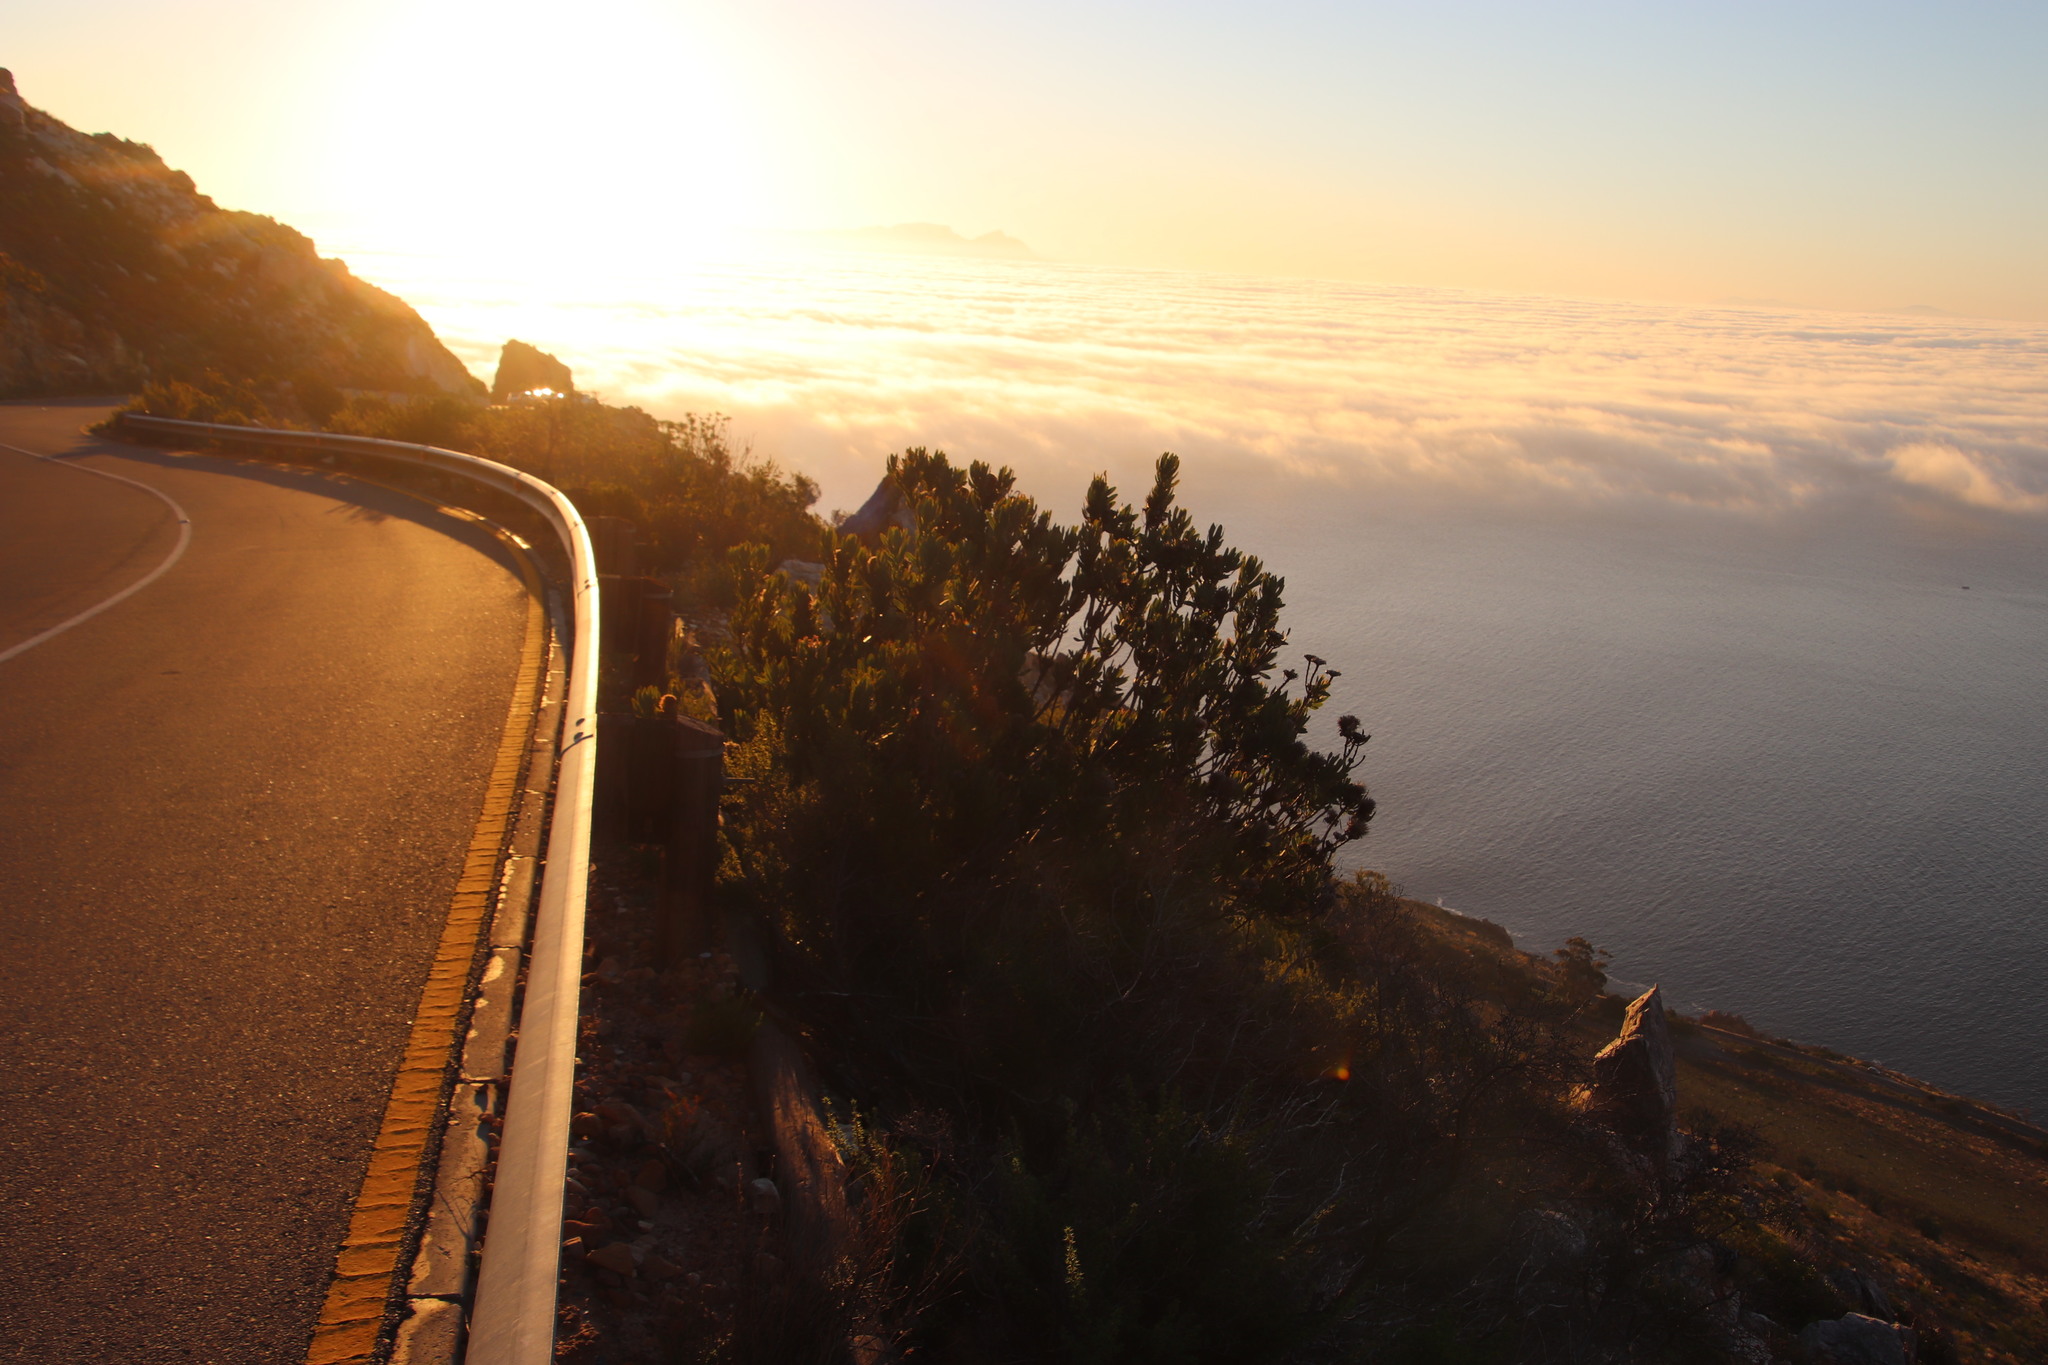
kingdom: Plantae
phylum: Tracheophyta
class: Magnoliopsida
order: Proteales
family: Proteaceae
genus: Protea
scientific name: Protea neriifolia
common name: Blue sugarbush
